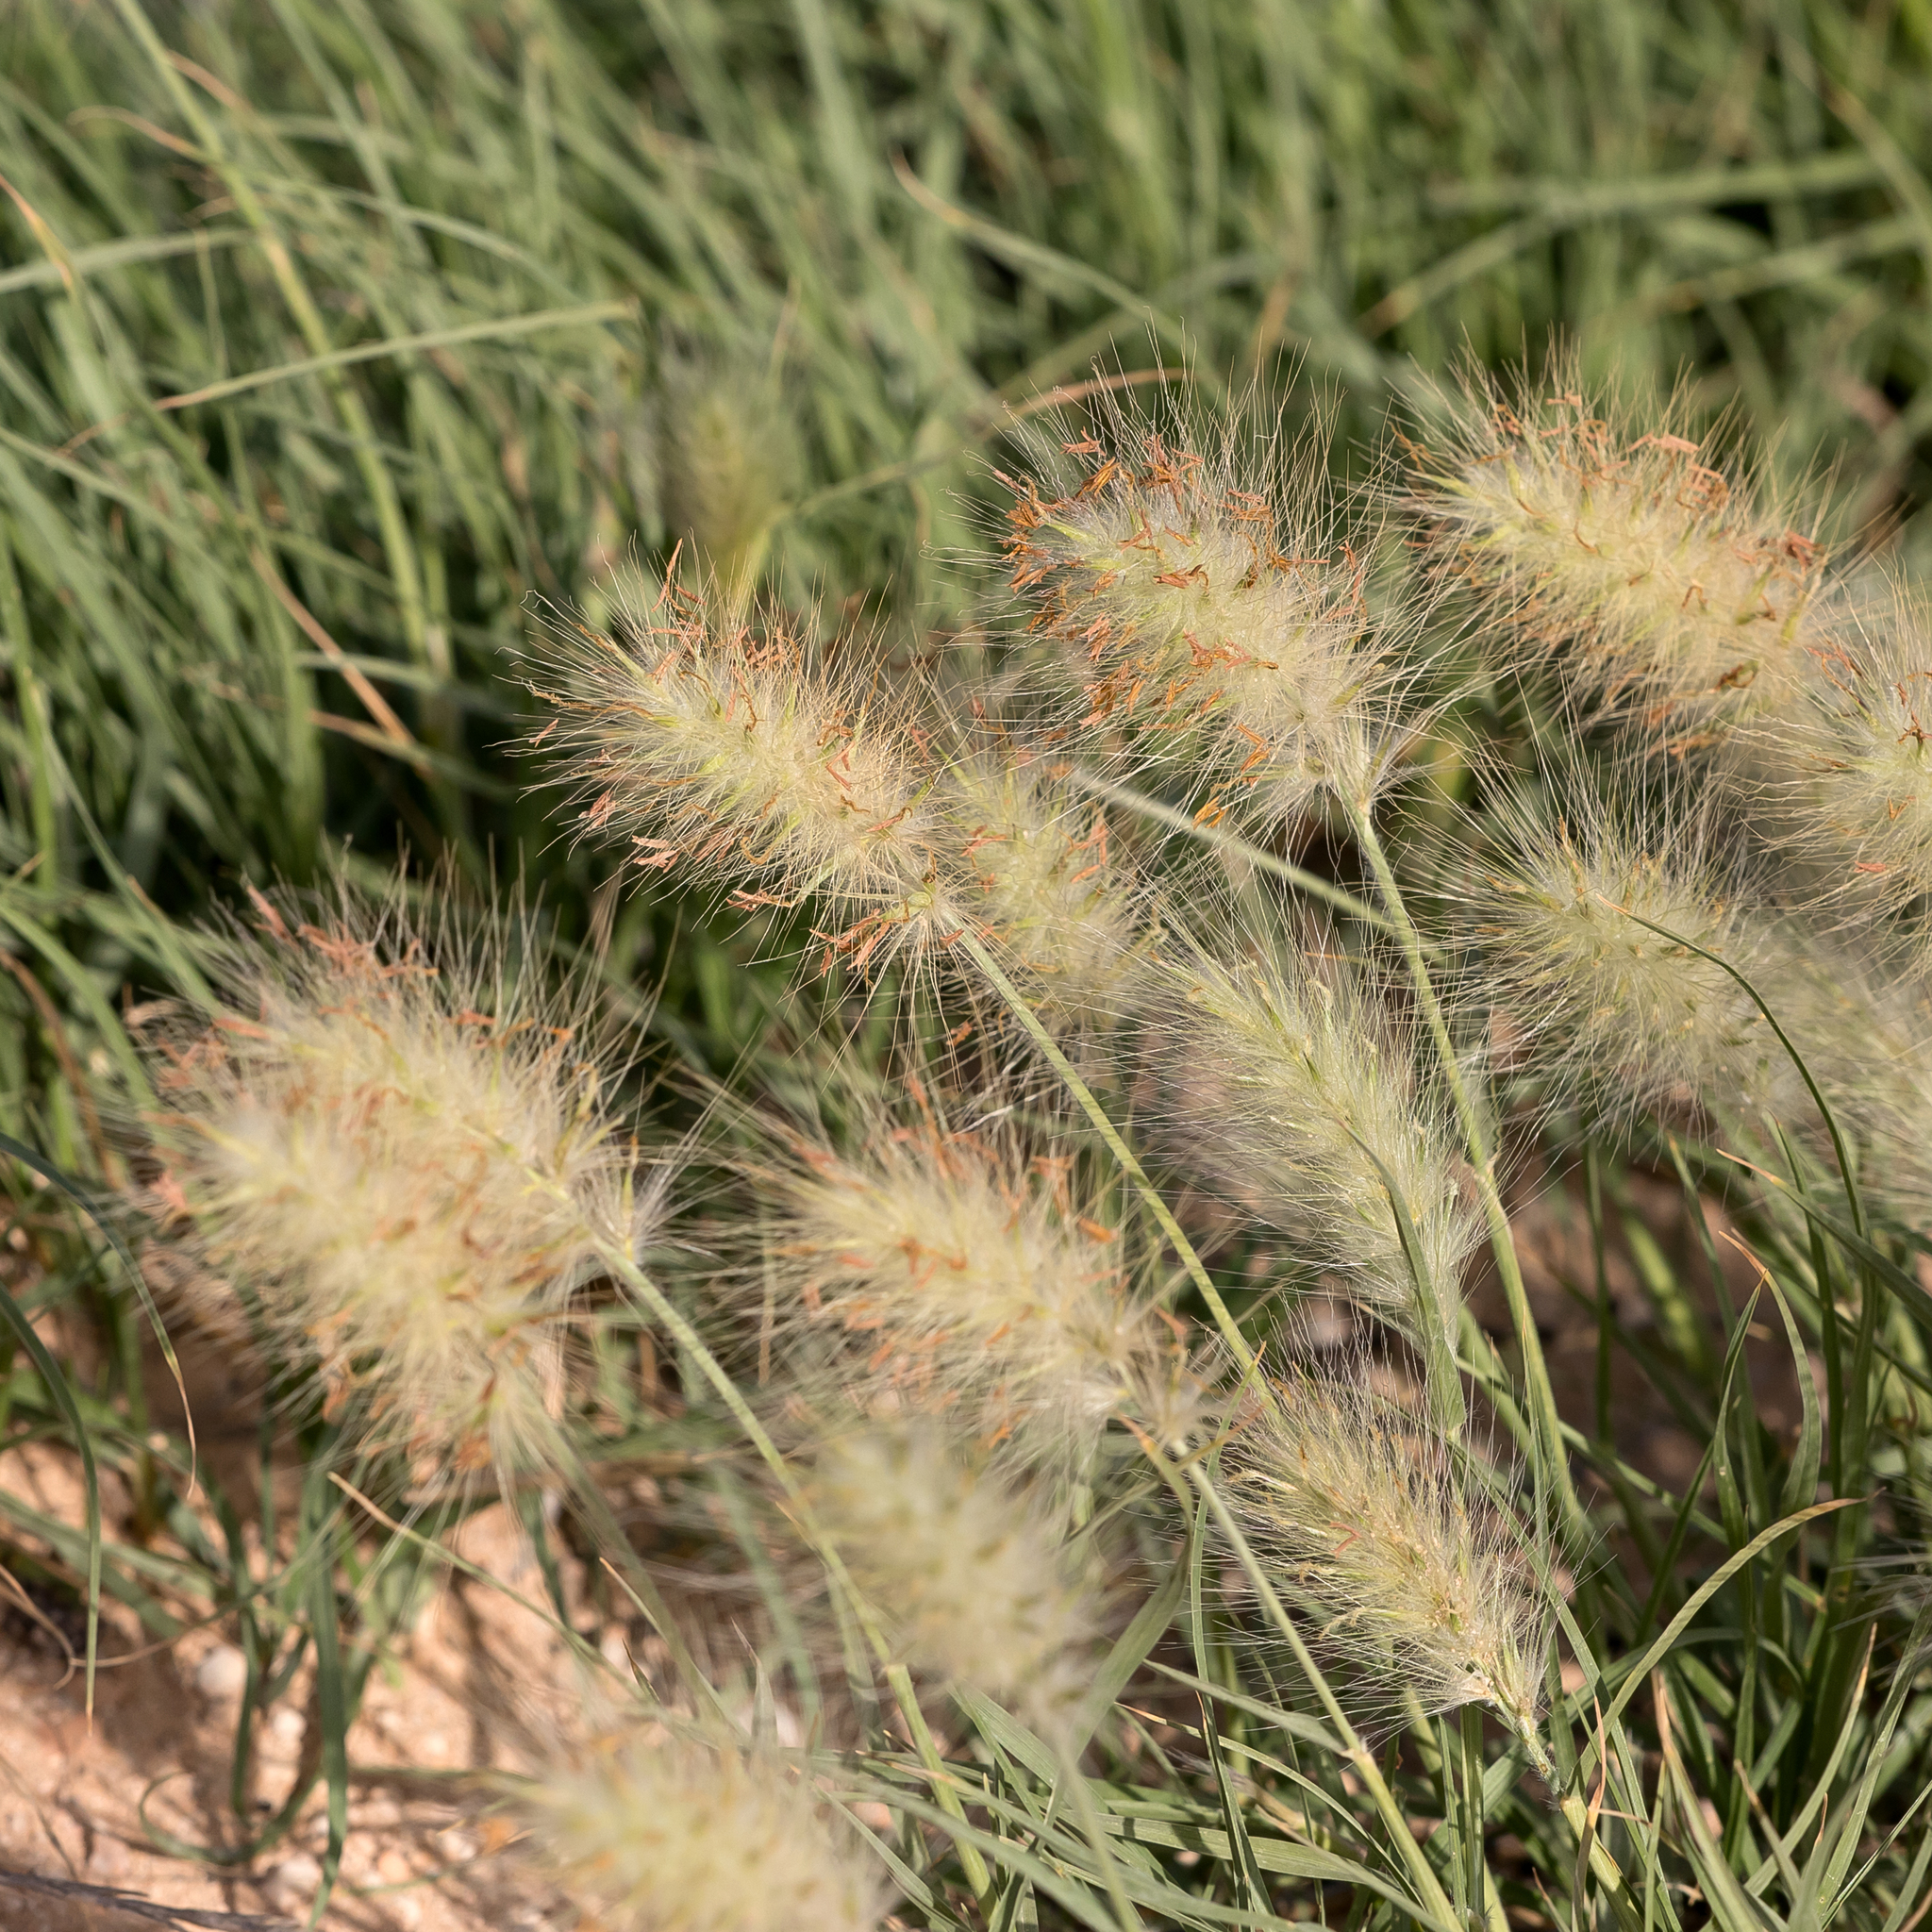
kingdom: Plantae
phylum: Tracheophyta
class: Liliopsida
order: Poales
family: Poaceae
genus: Cenchrus
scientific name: Cenchrus longisetus
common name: Feathertop
